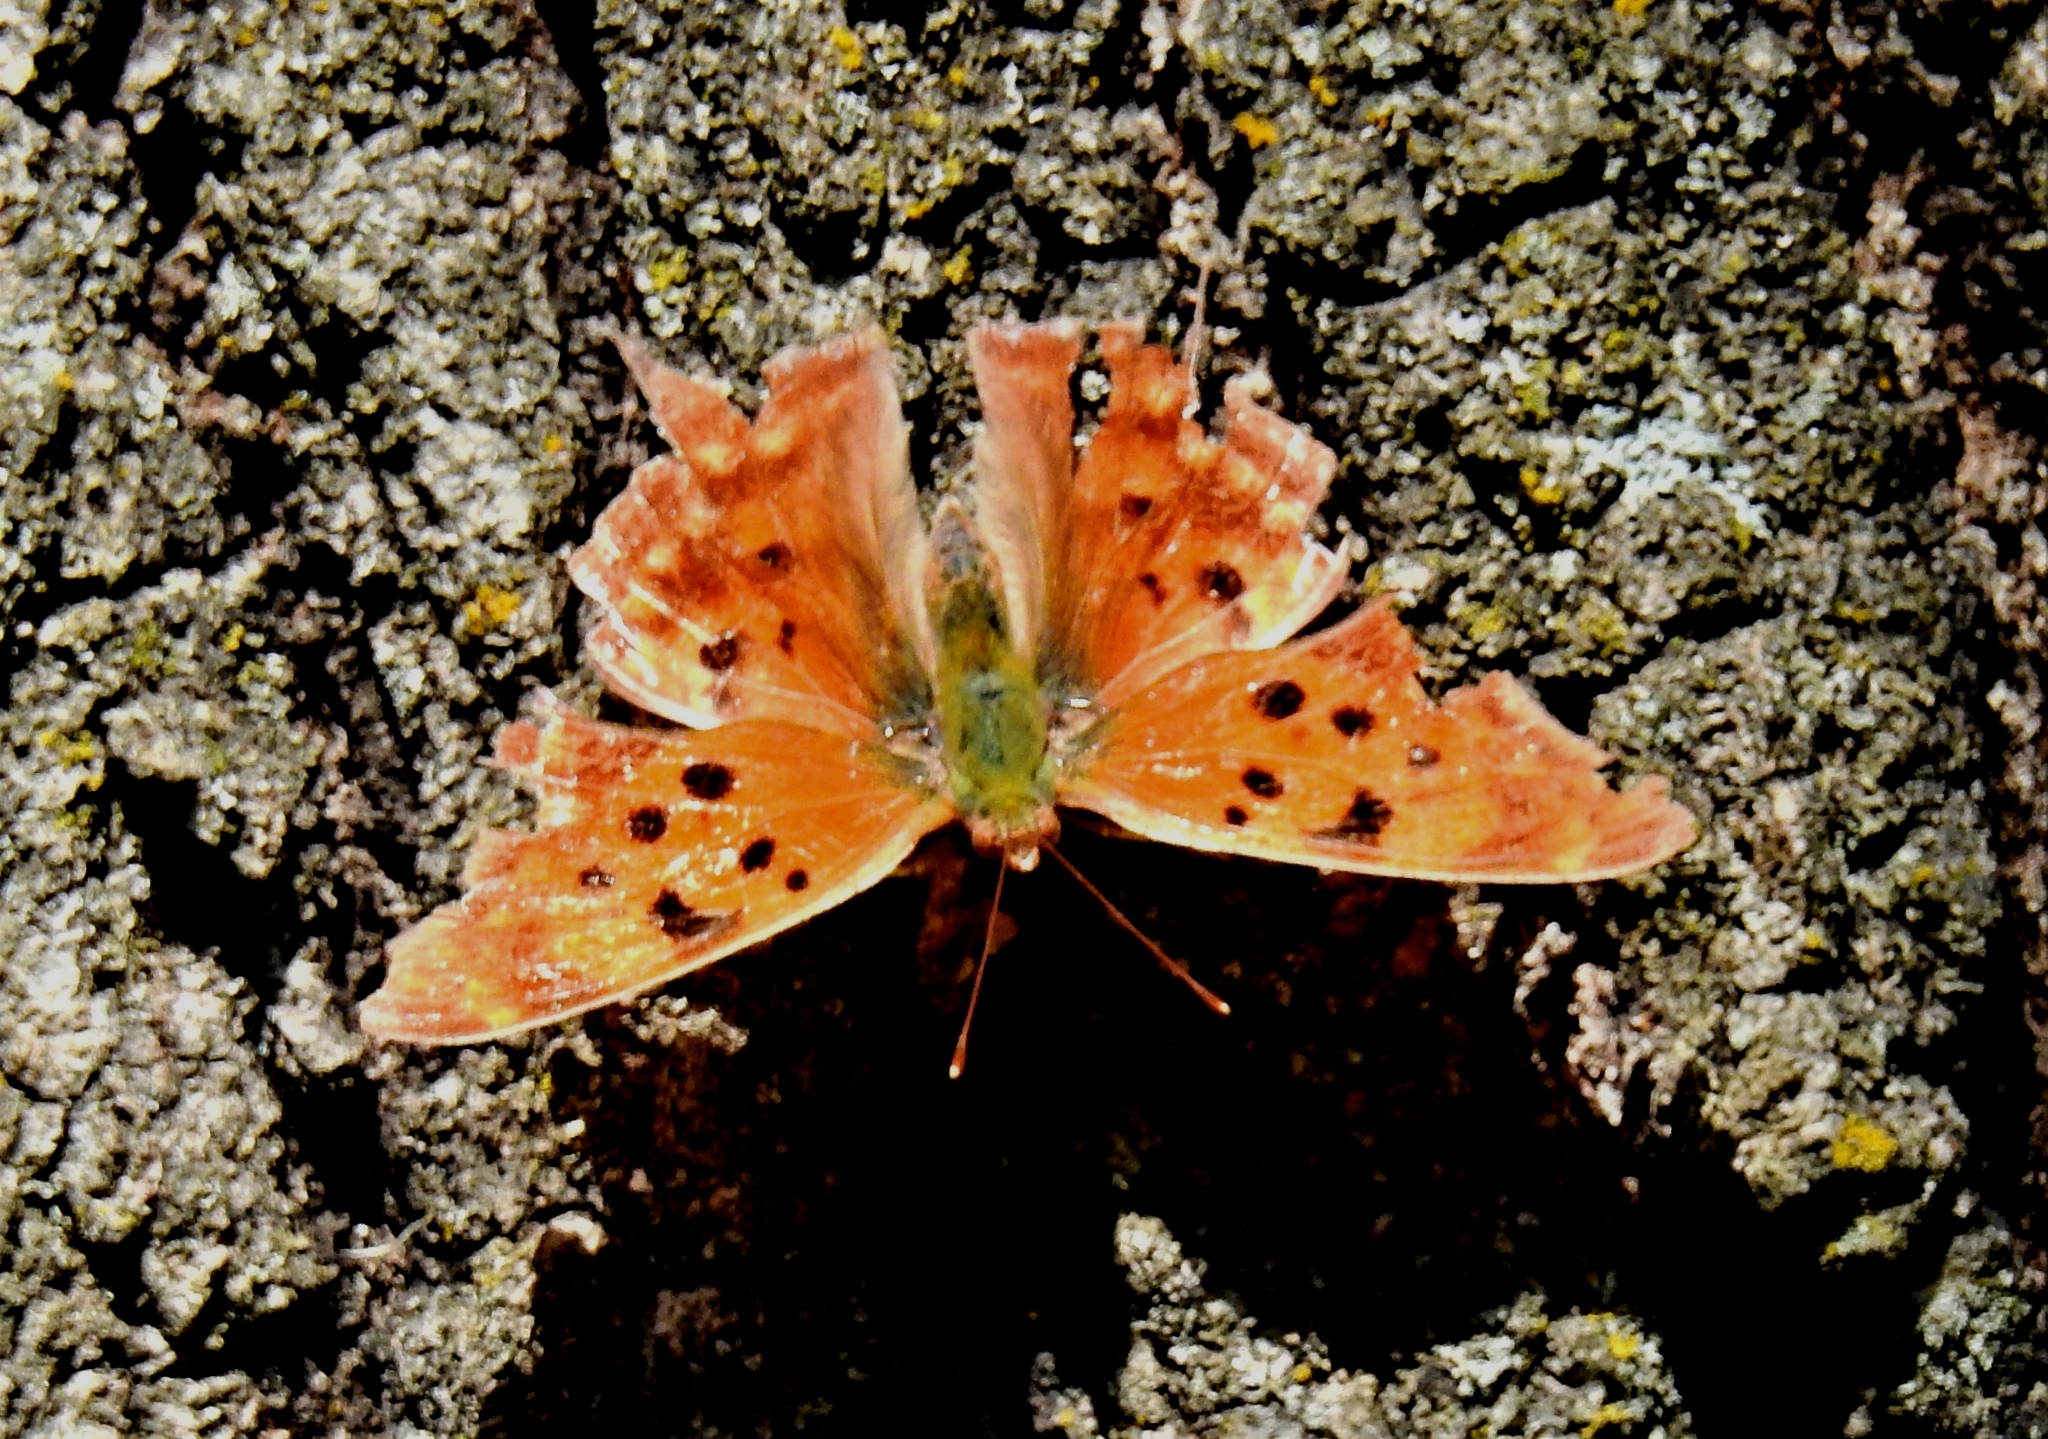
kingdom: Animalia
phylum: Arthropoda
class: Insecta
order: Lepidoptera
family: Nymphalidae
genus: Polygonia
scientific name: Polygonia interrogationis
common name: Question mark
